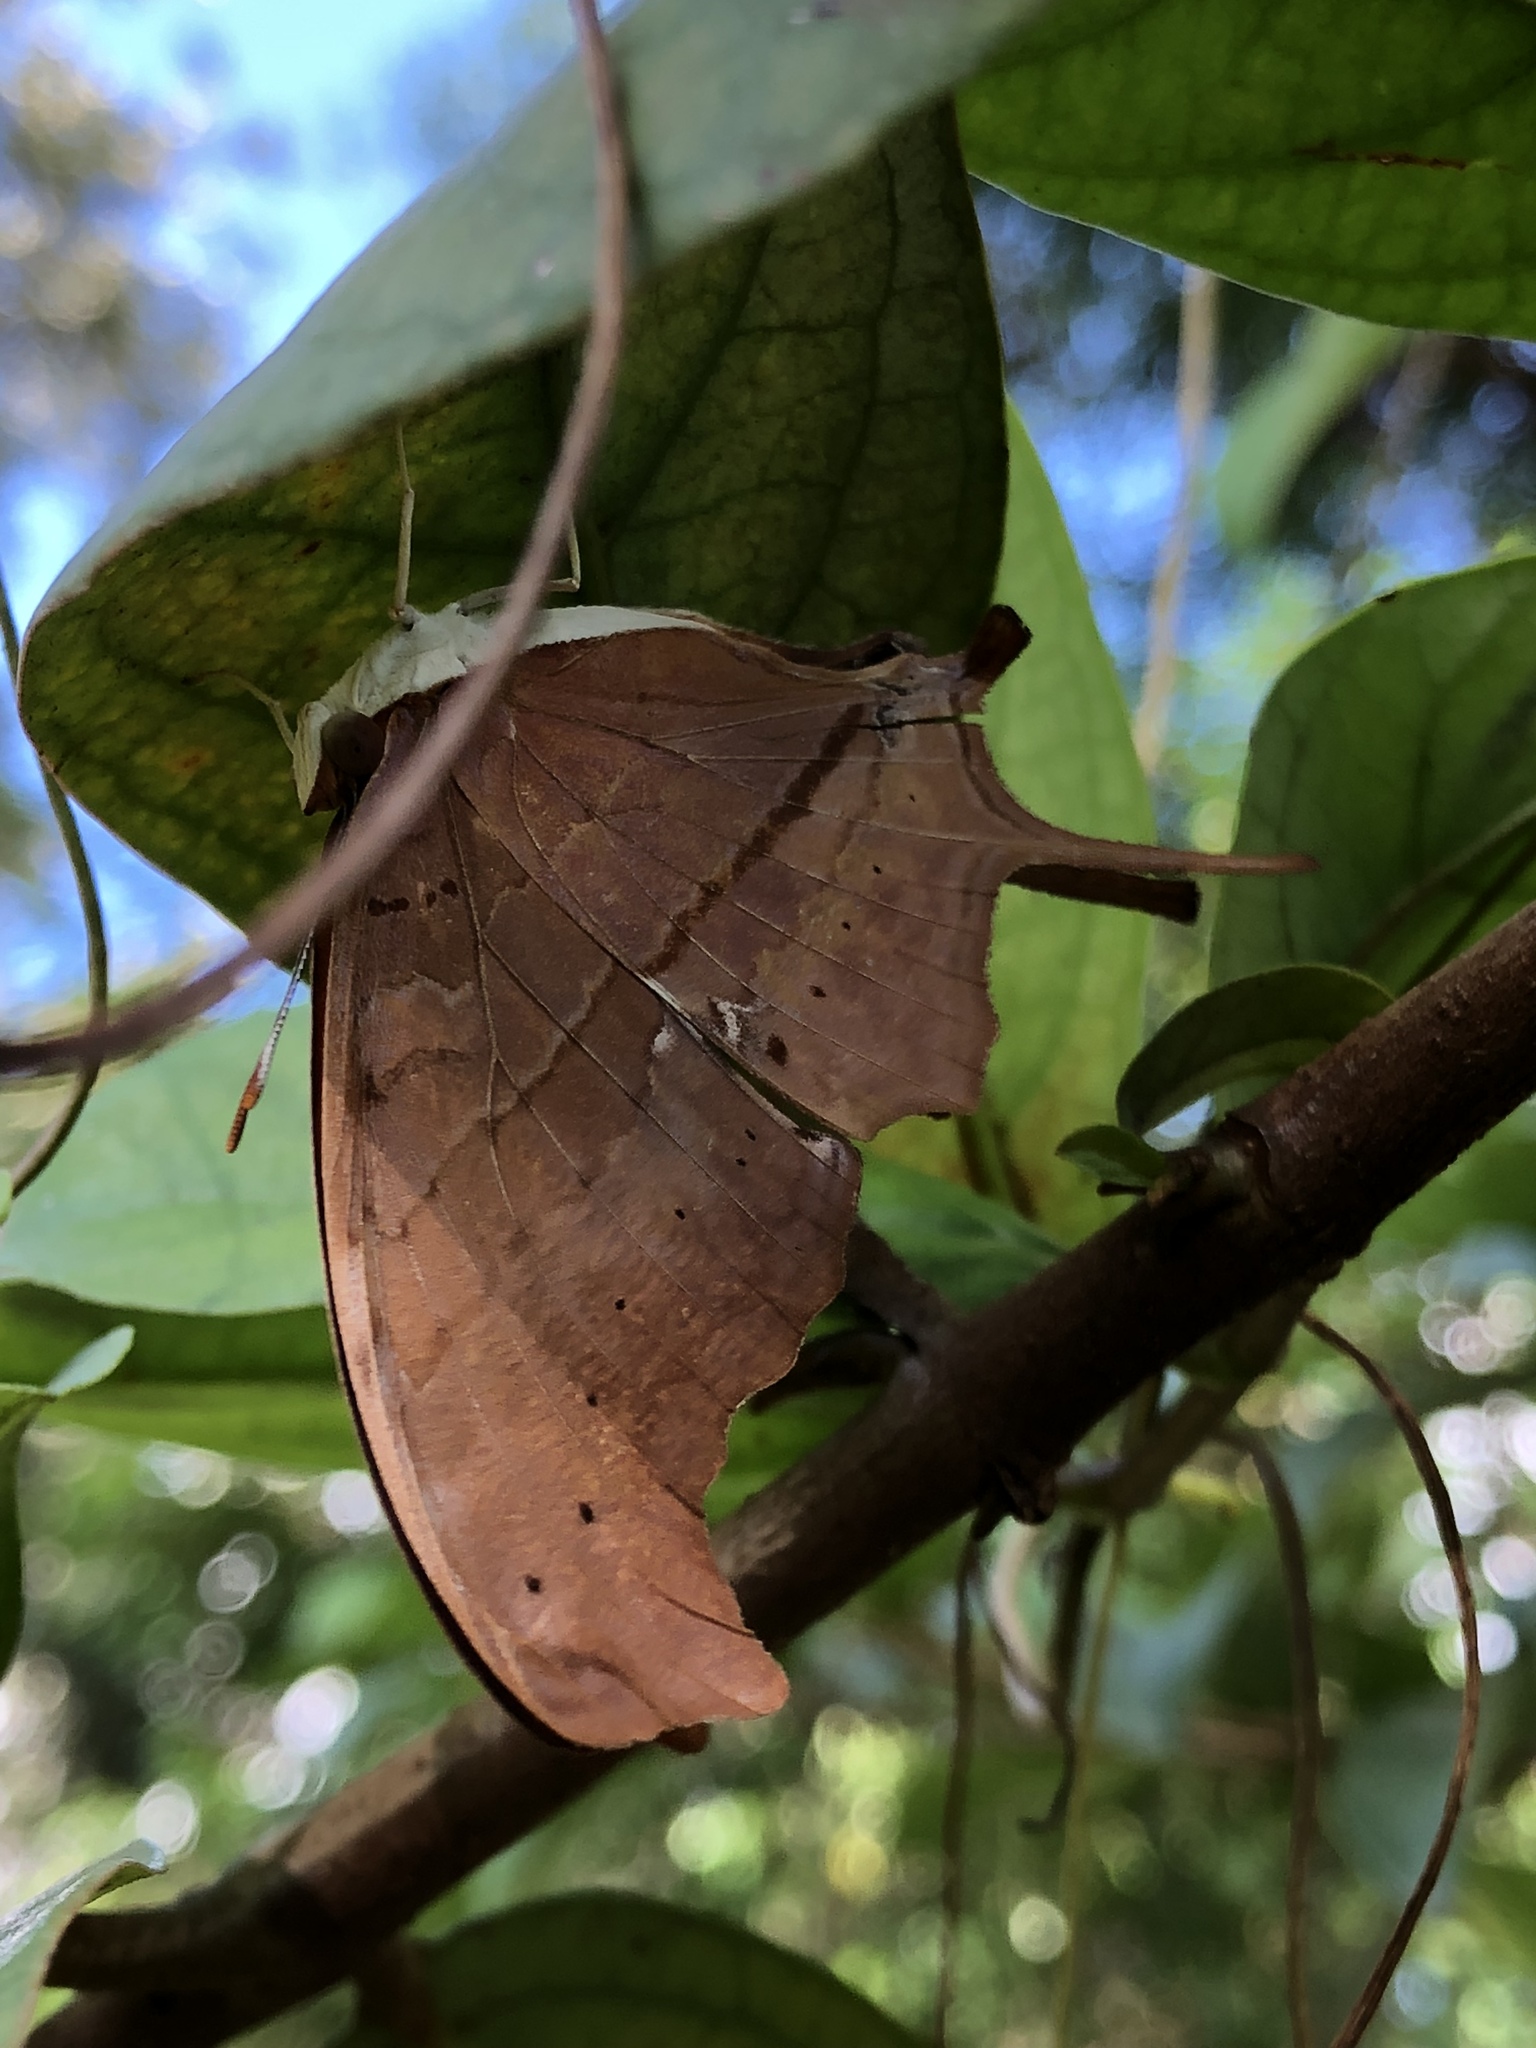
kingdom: Animalia
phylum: Arthropoda
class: Insecta
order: Lepidoptera
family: Nymphalidae
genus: Marpesia
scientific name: Marpesia petreus
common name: Red dagger wing
